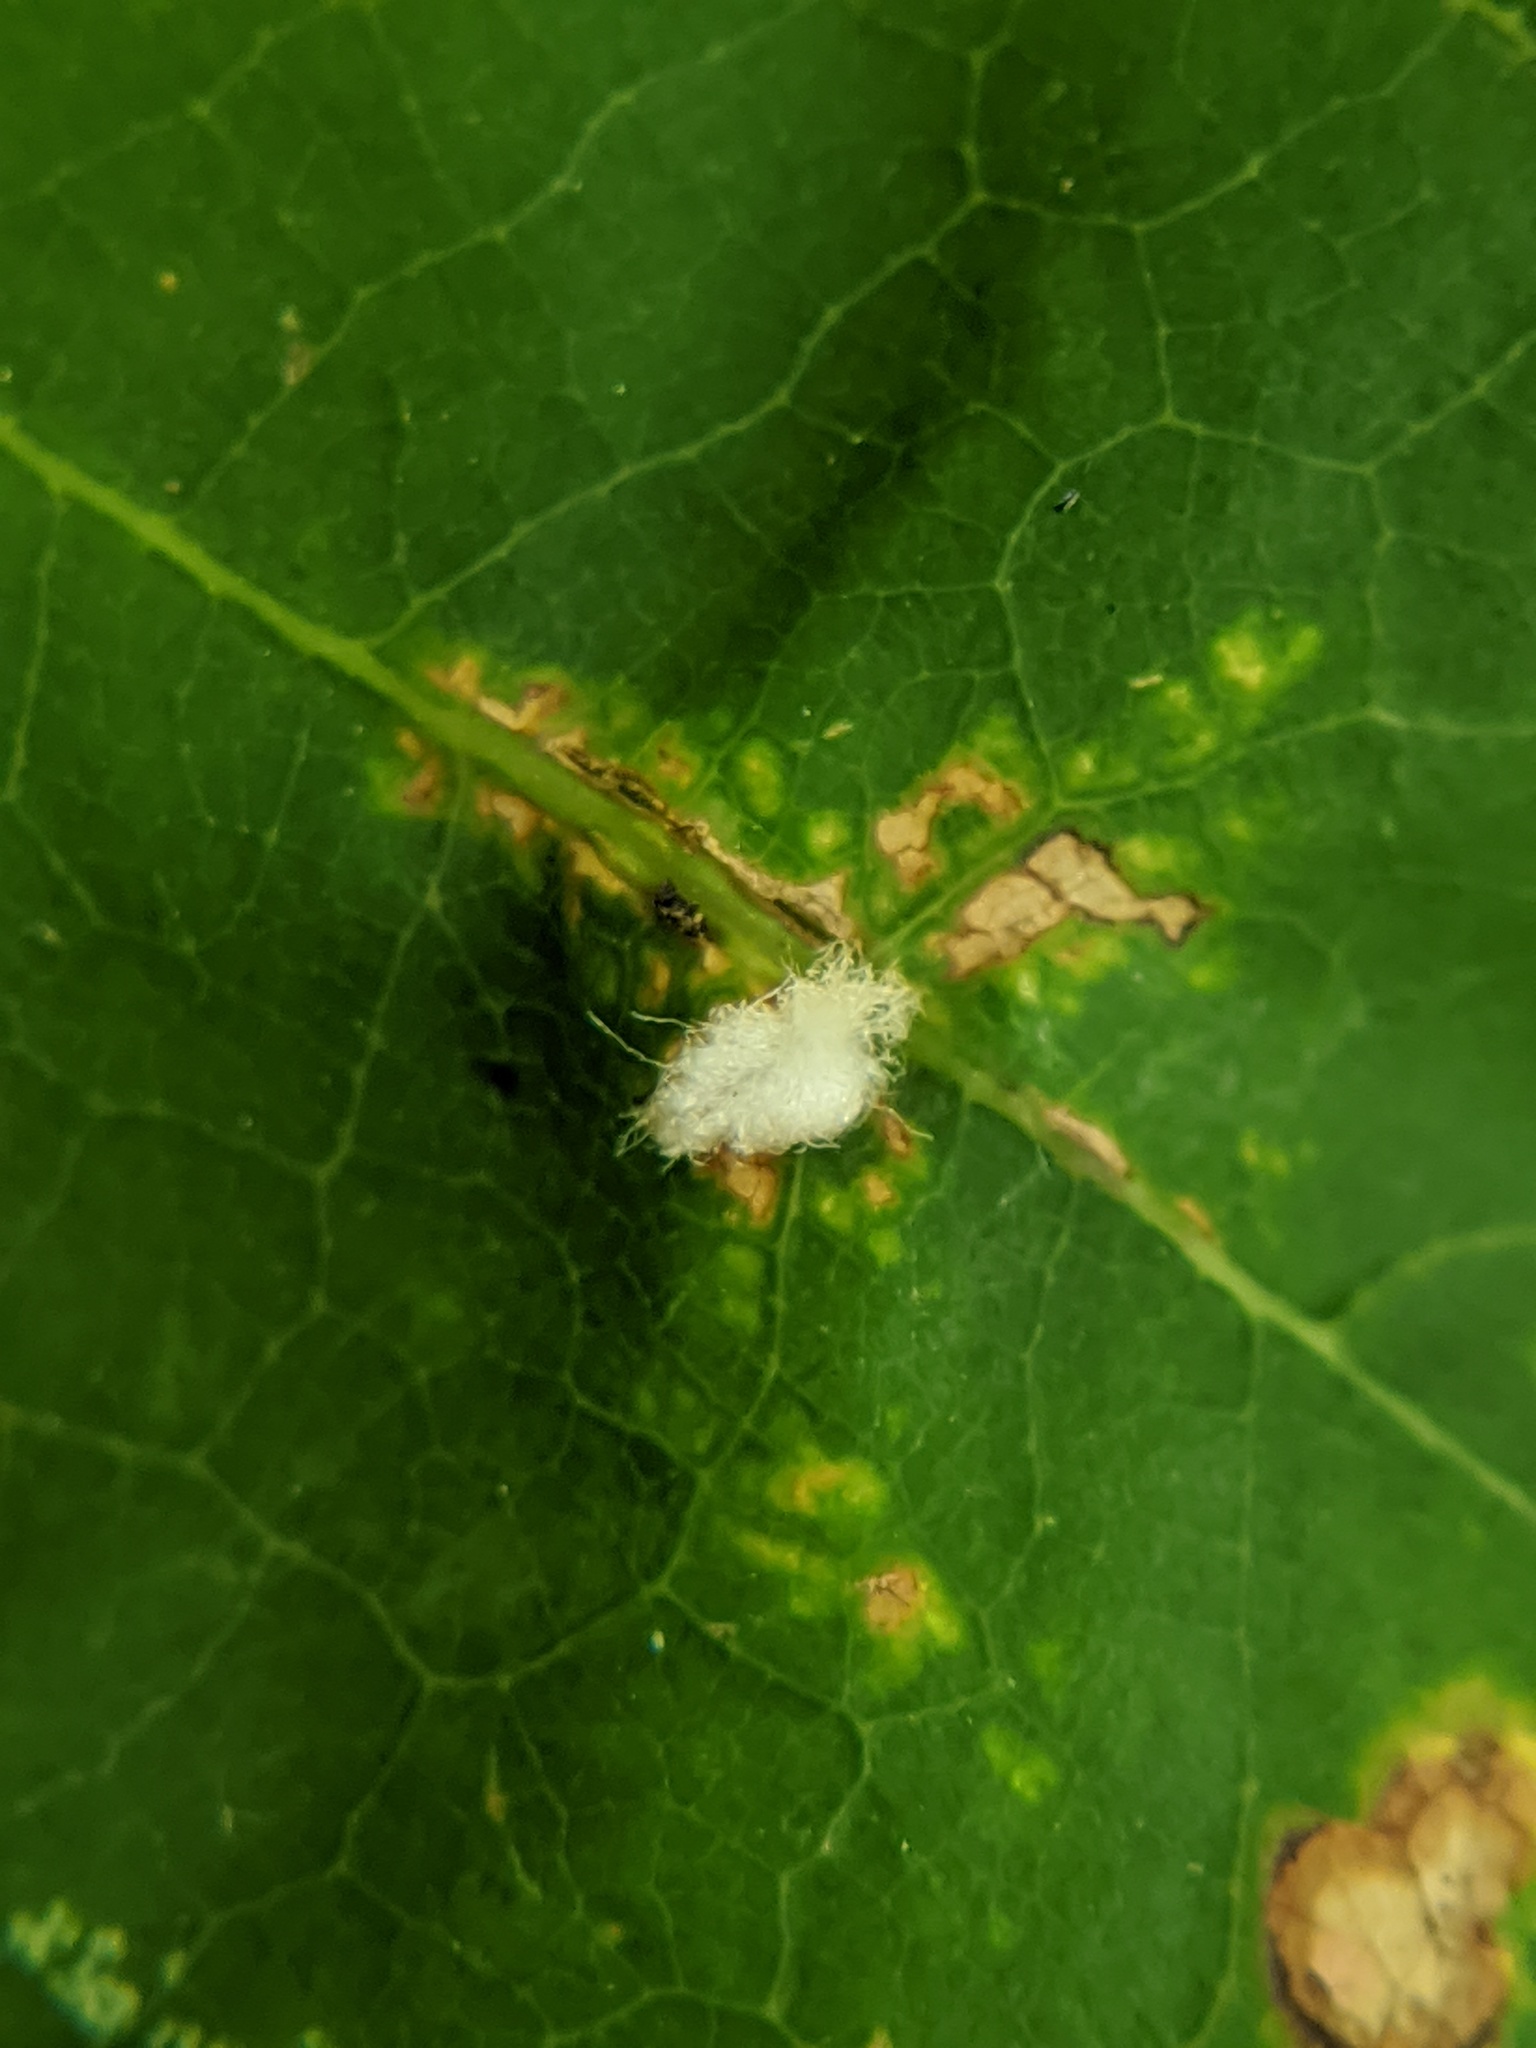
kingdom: Animalia
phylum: Arthropoda
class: Insecta
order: Hymenoptera
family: Cynipidae
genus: Callirhytis
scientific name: Callirhytis
